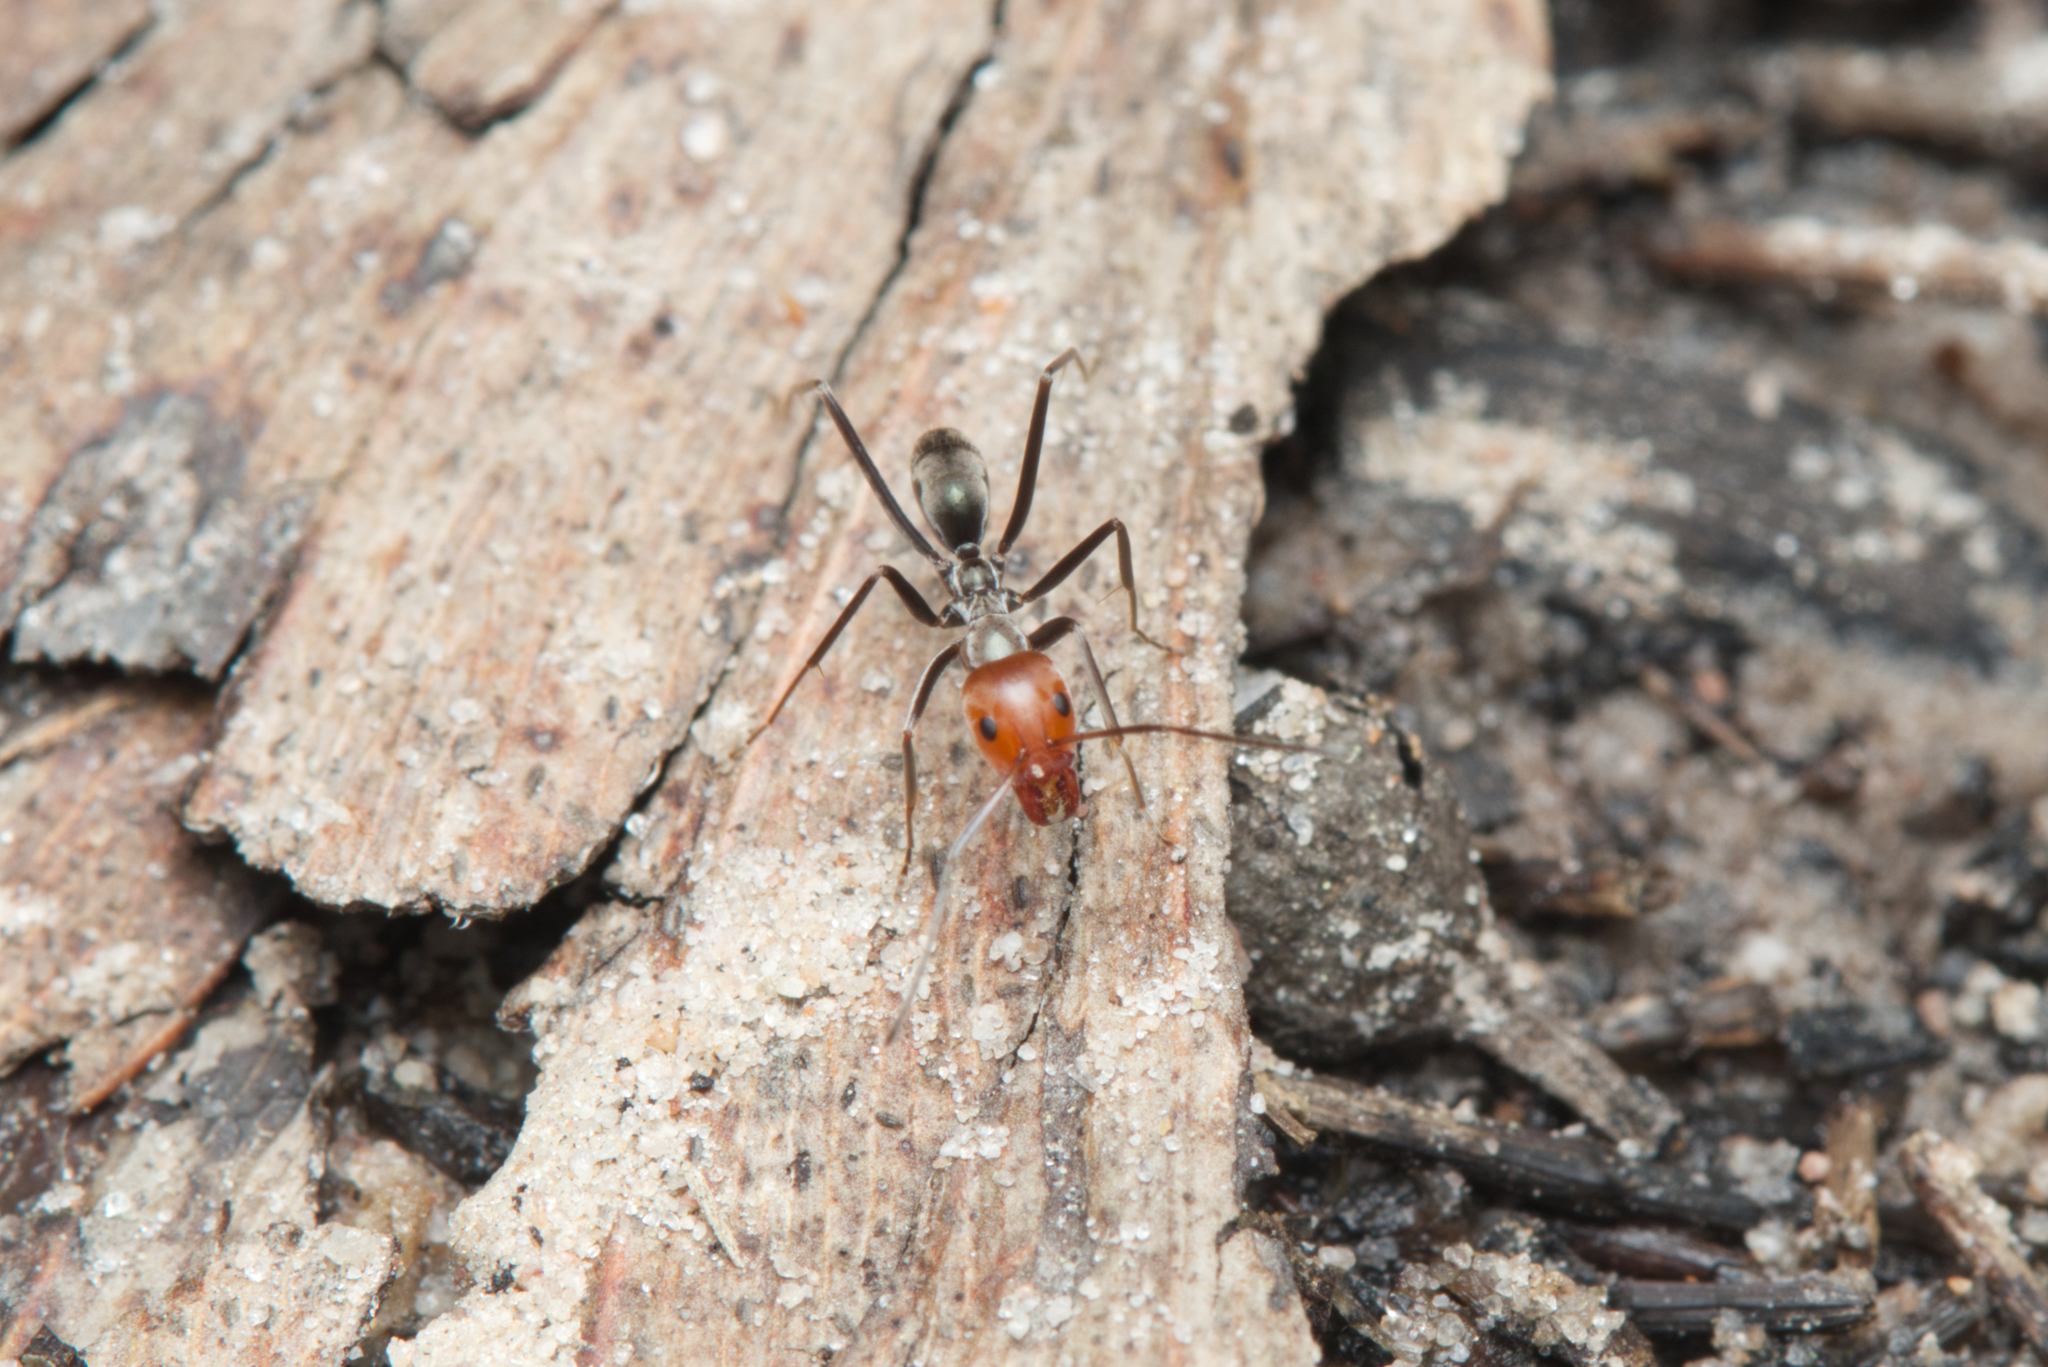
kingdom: Animalia
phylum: Arthropoda
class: Insecta
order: Hymenoptera
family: Formicidae
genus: Iridomyrmex
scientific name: Iridomyrmex
